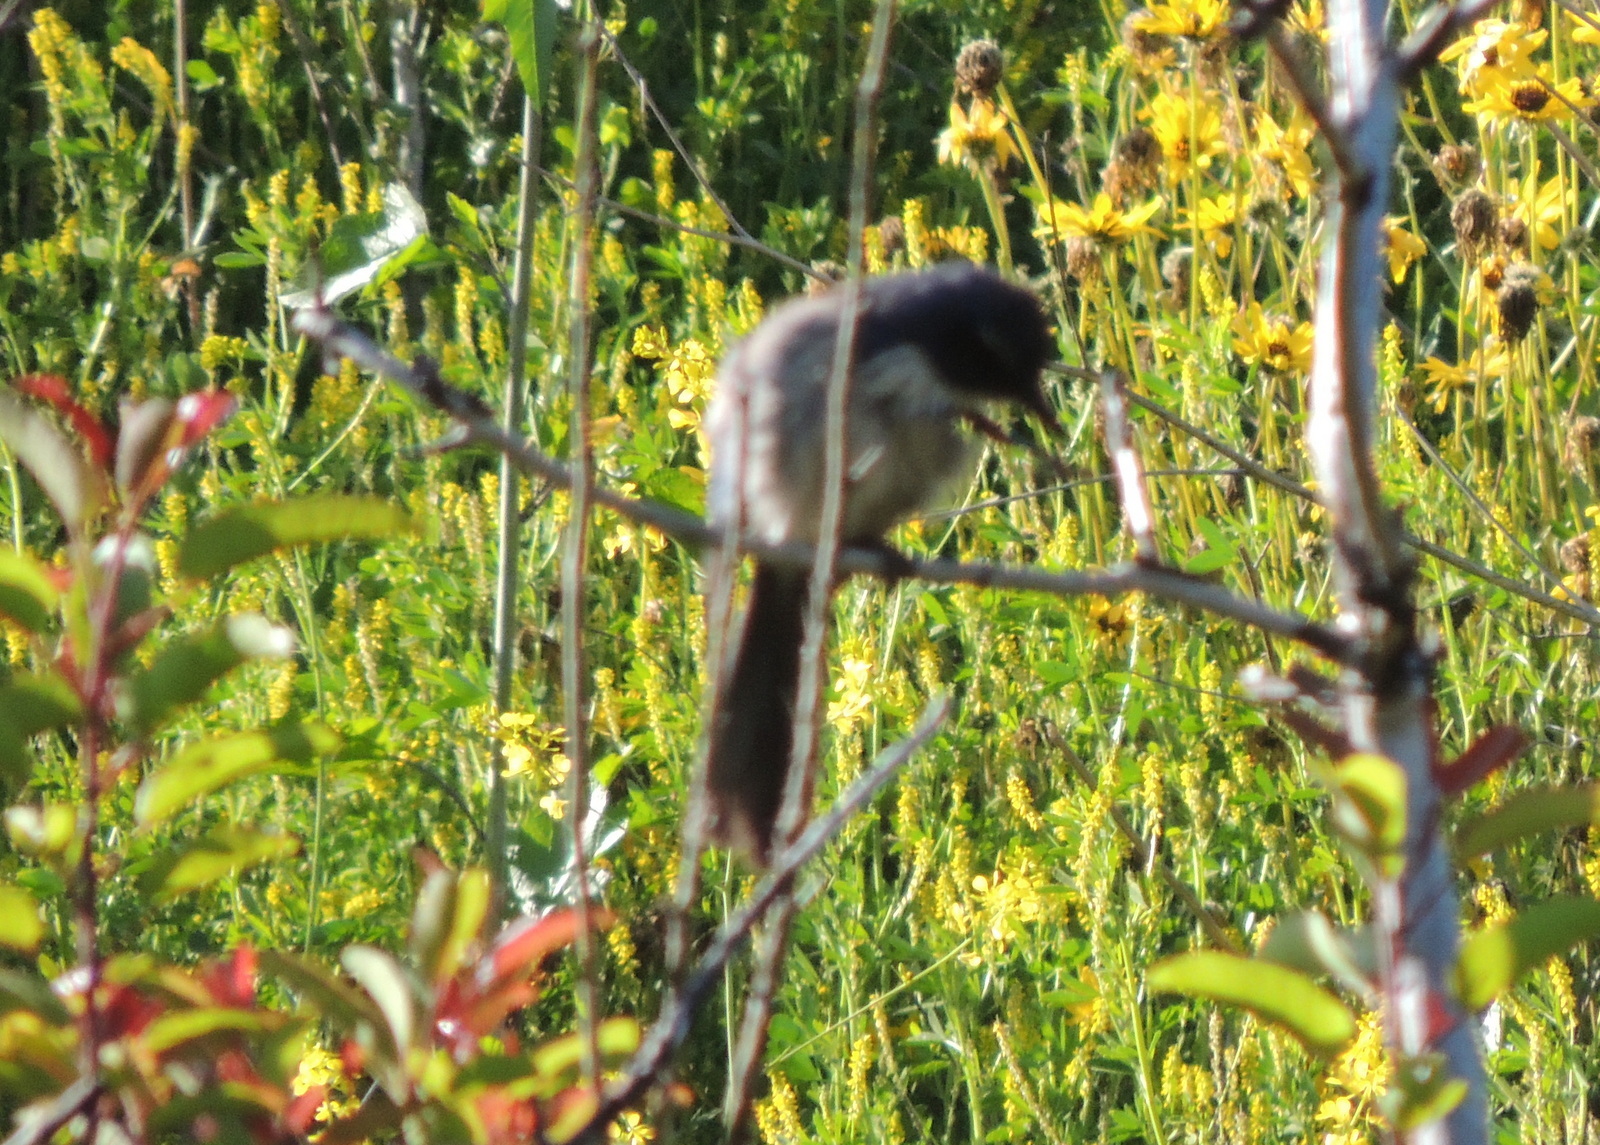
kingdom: Animalia
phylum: Chordata
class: Aves
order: Passeriformes
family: Corvidae
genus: Aphelocoma
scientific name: Aphelocoma californica
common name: California scrub-jay
